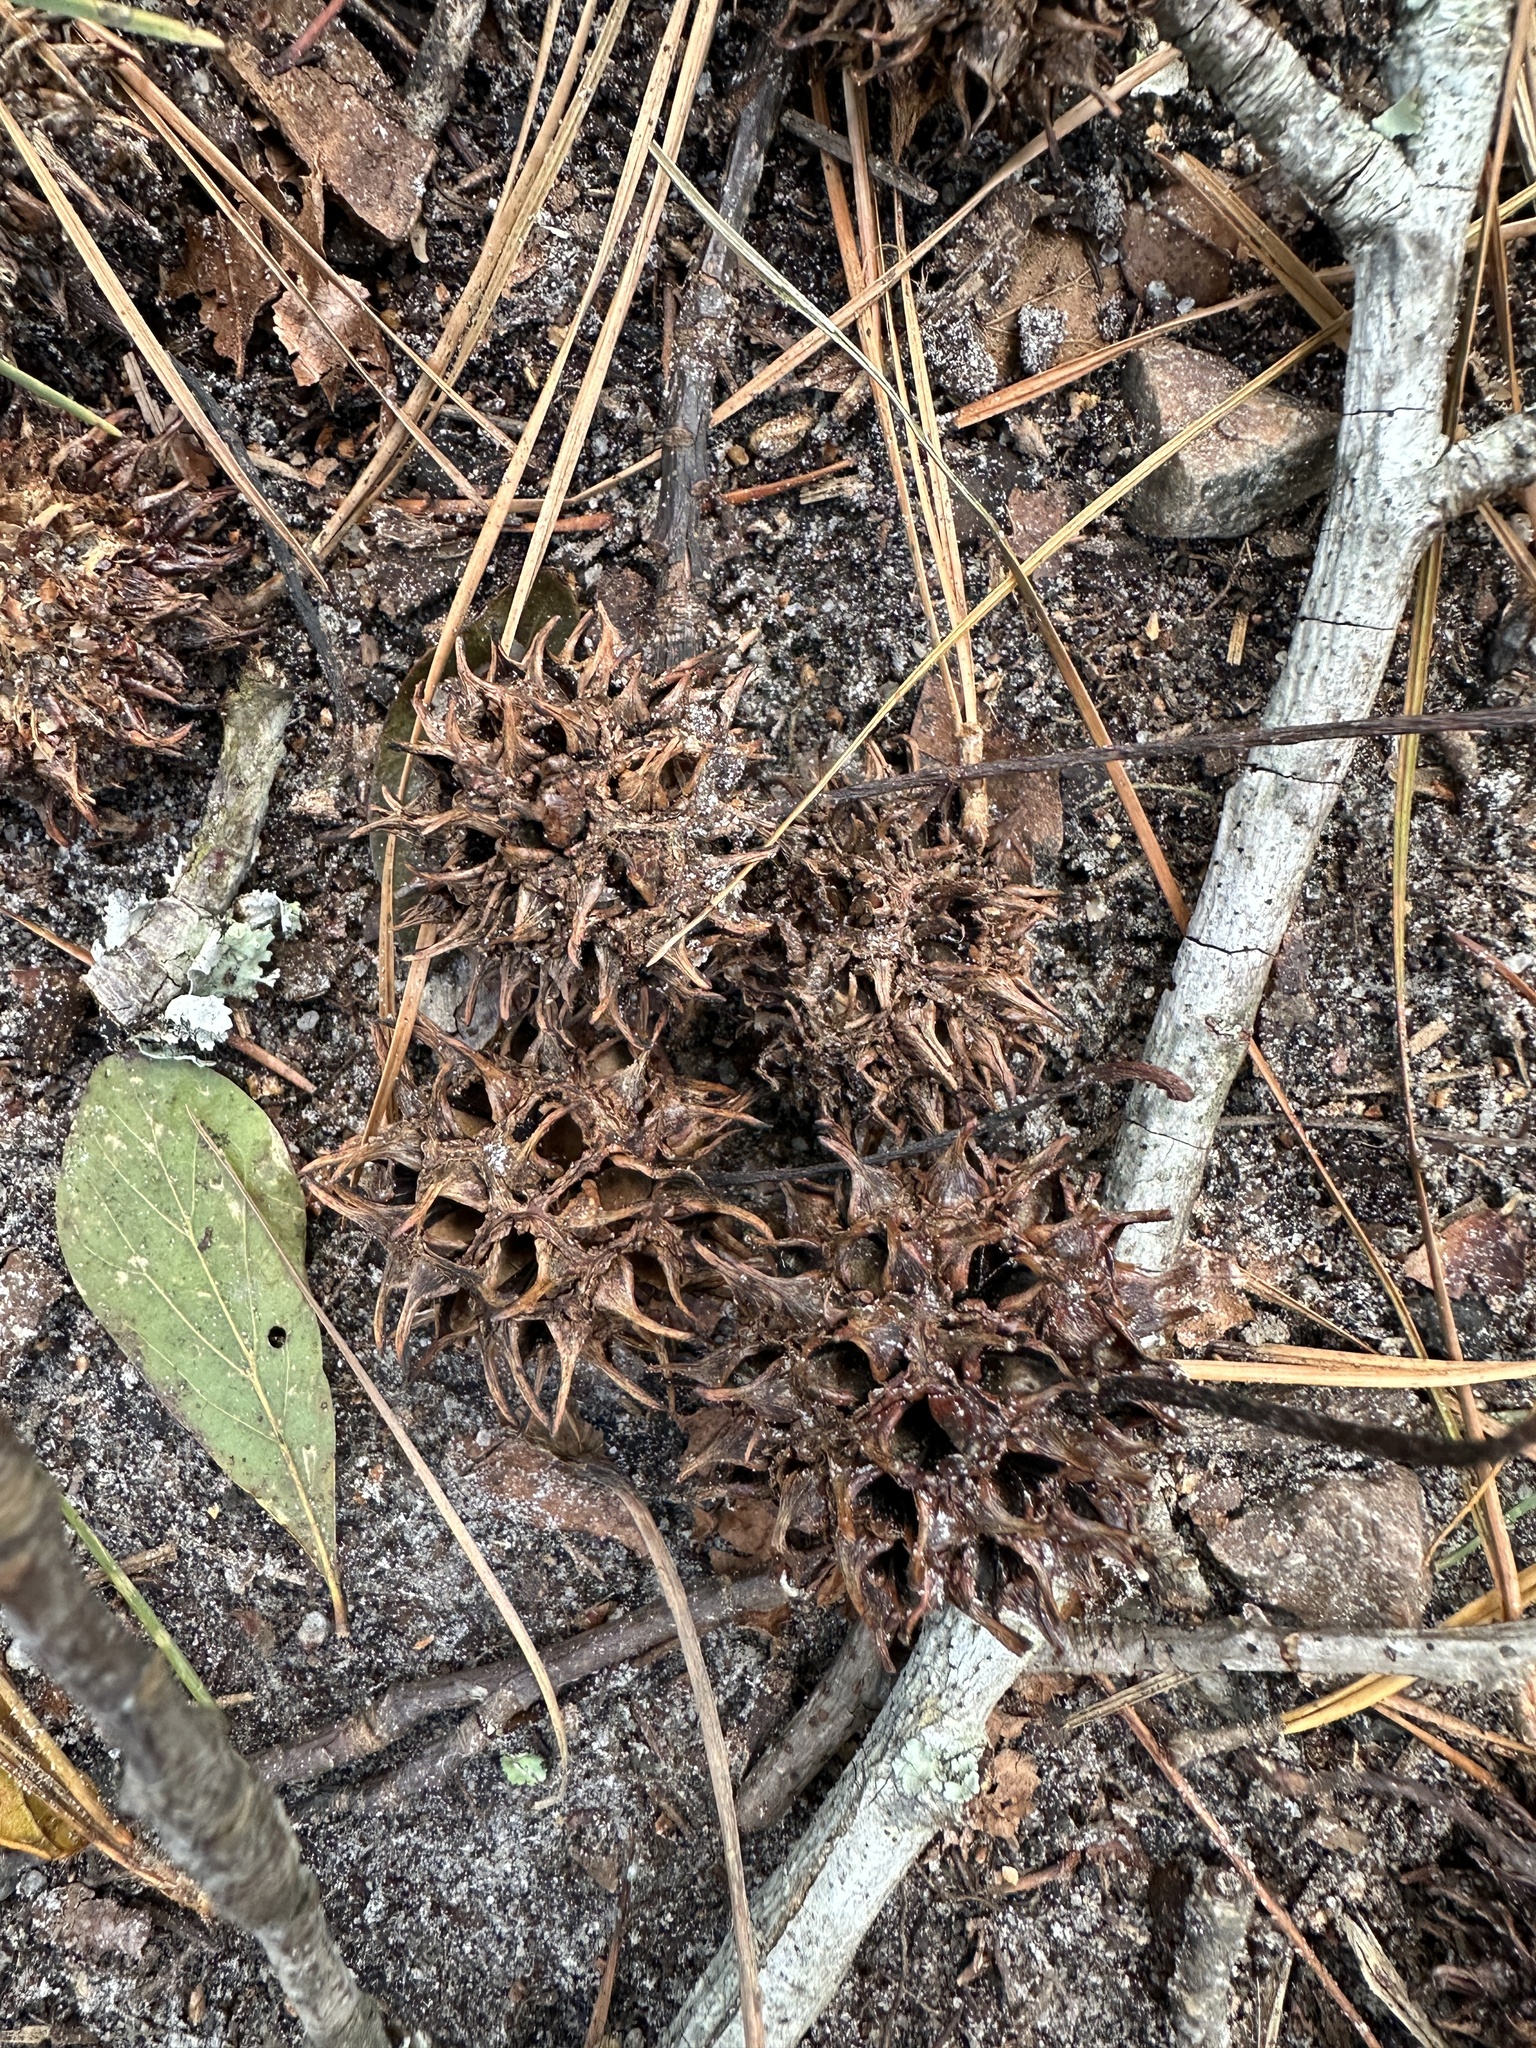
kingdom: Plantae
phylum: Tracheophyta
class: Magnoliopsida
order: Saxifragales
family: Altingiaceae
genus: Liquidambar
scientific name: Liquidambar styraciflua
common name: Sweet gum
